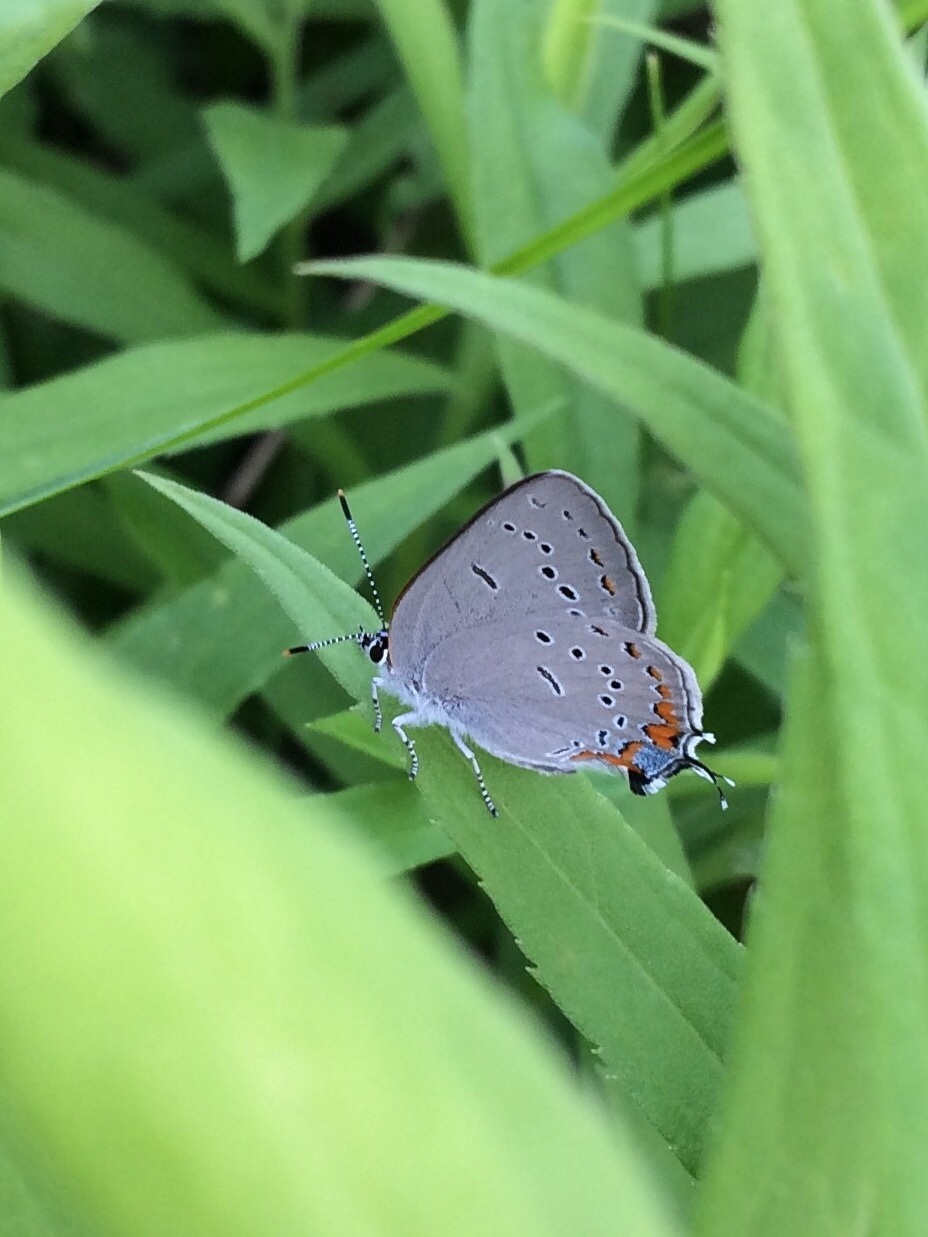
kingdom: Animalia
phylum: Arthropoda
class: Insecta
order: Lepidoptera
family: Lycaenidae
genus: Strymon
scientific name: Strymon acadica
